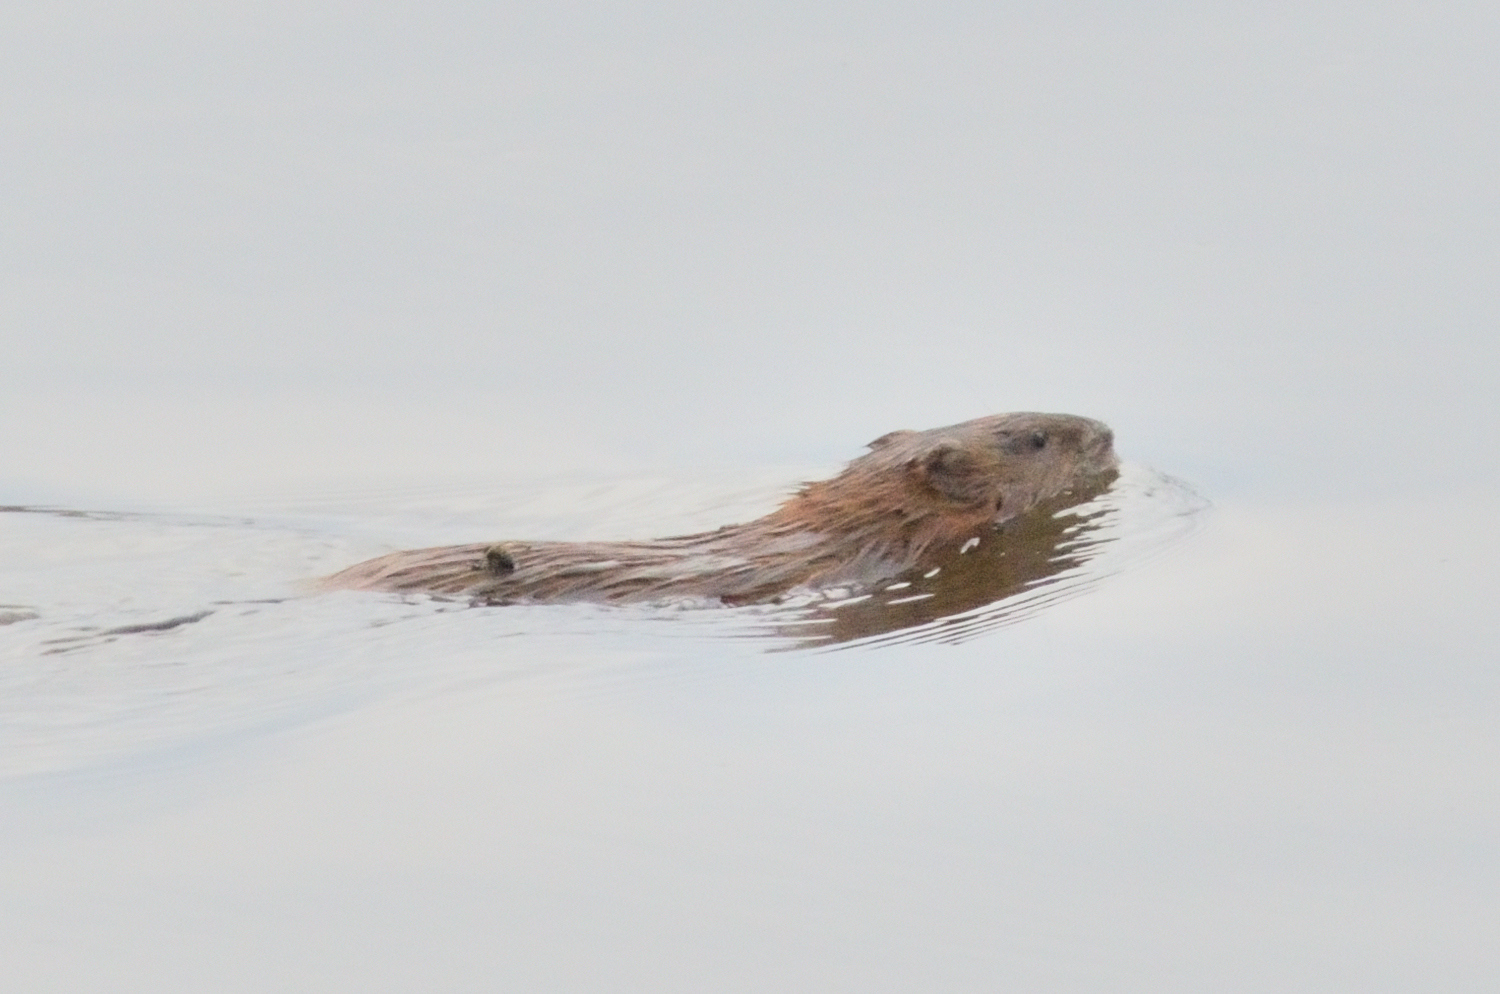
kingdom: Animalia
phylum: Chordata
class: Mammalia
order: Rodentia
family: Cricetidae
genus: Ondatra
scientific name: Ondatra zibethicus
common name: Muskrat
